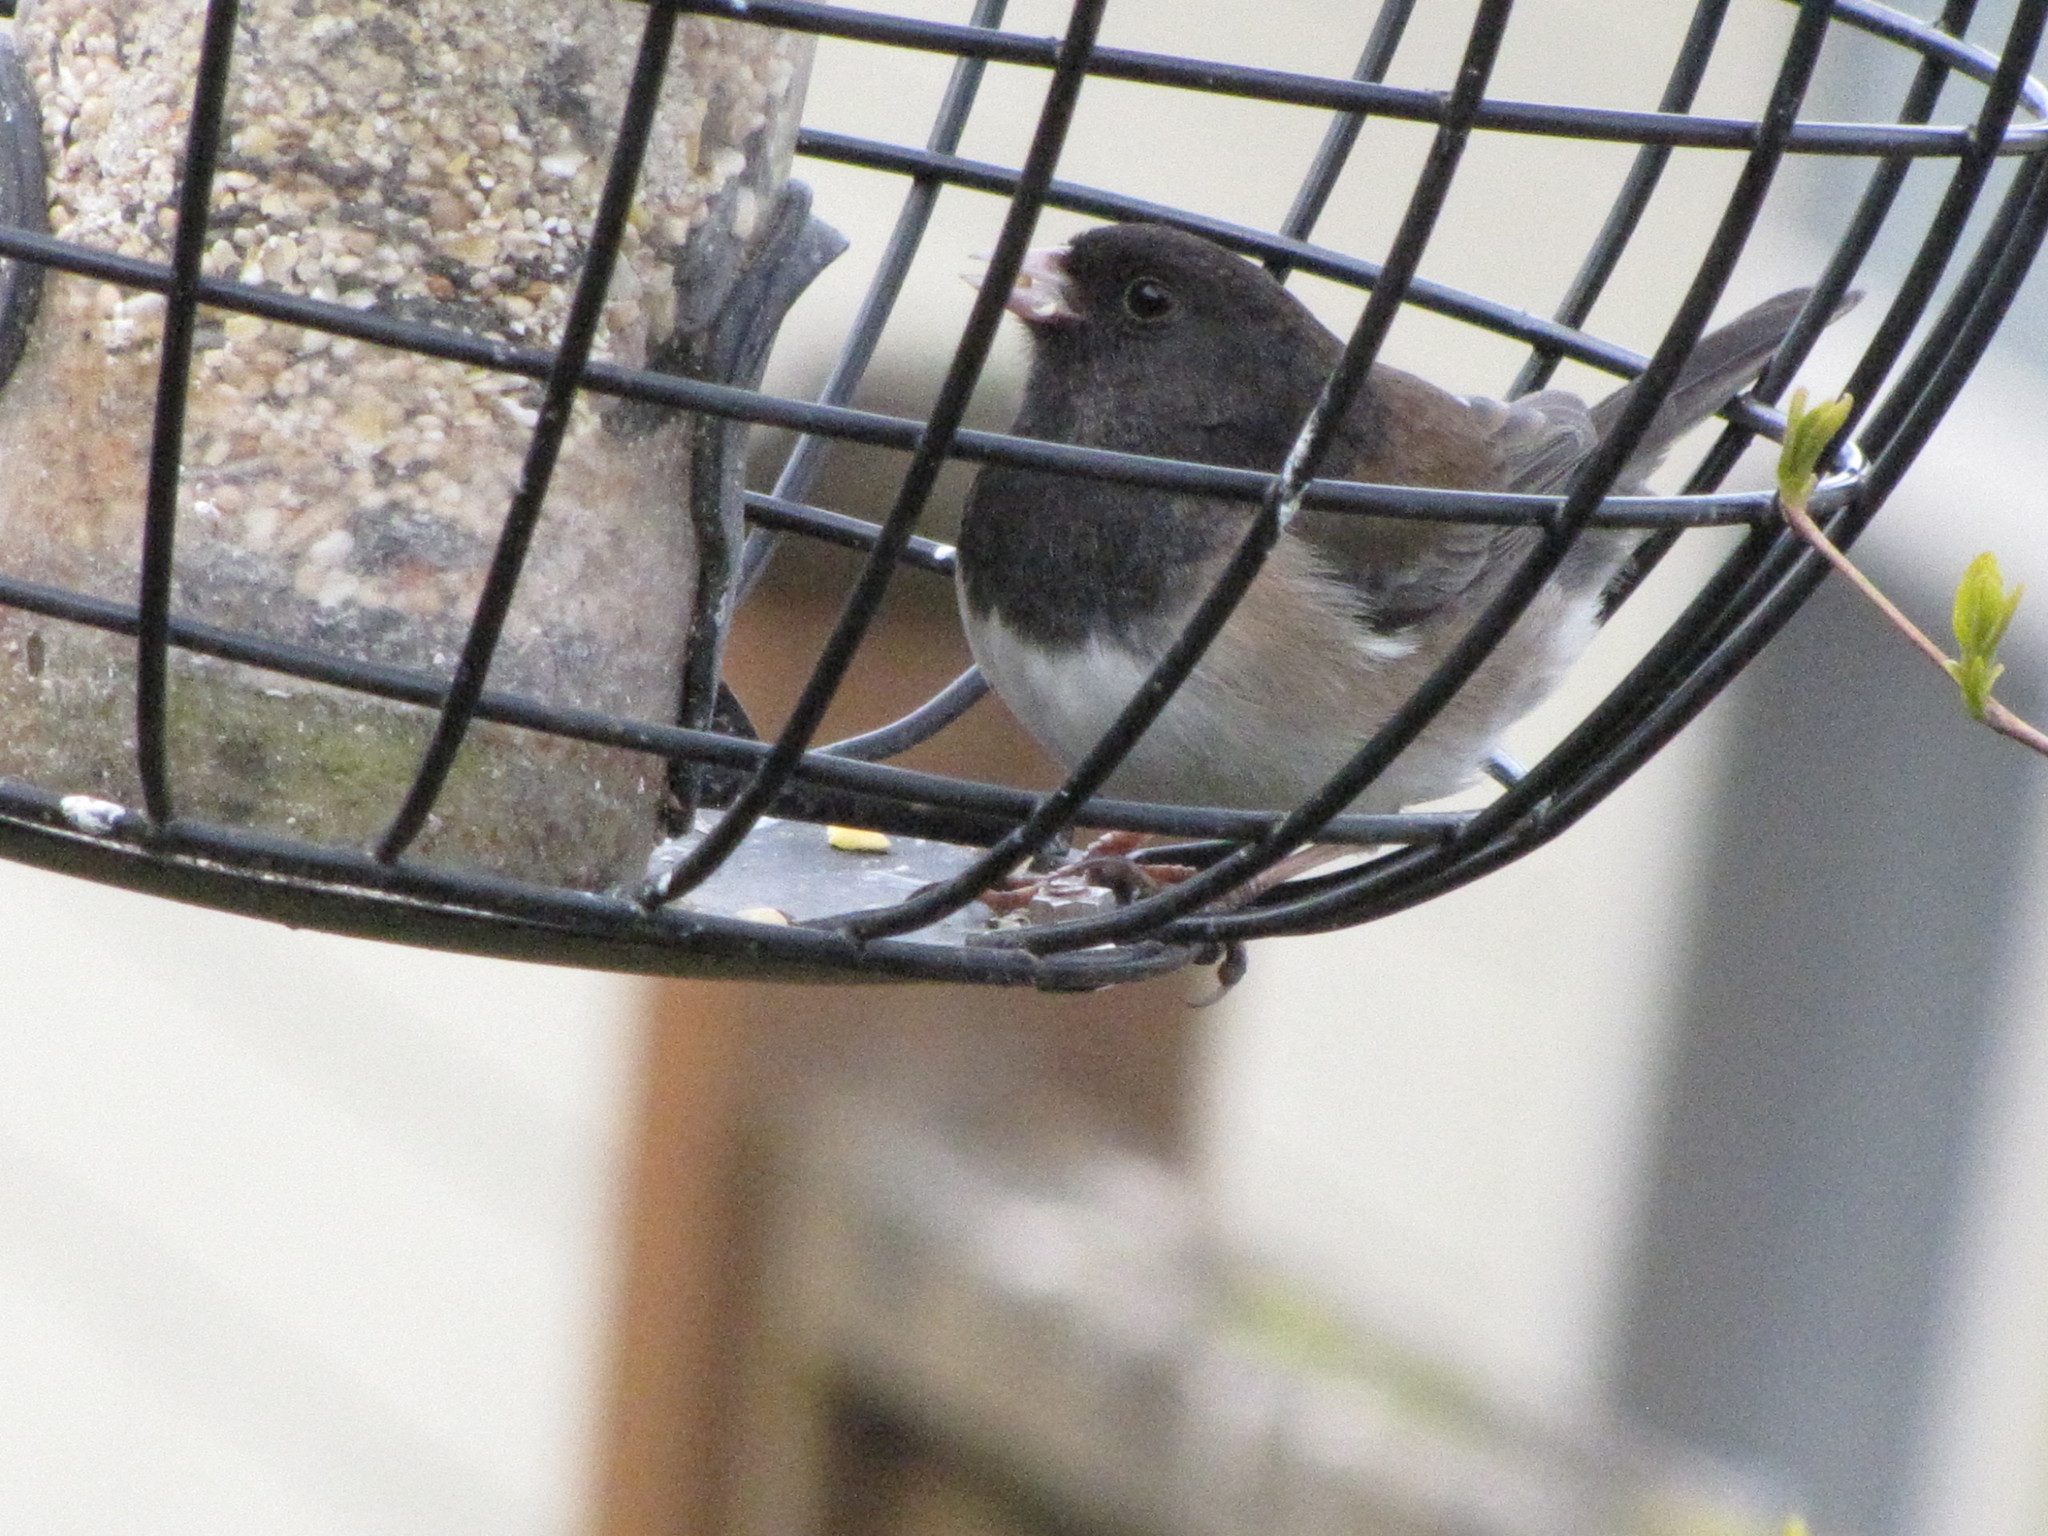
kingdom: Animalia
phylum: Chordata
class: Aves
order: Passeriformes
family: Passerellidae
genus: Junco
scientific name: Junco hyemalis
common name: Dark-eyed junco
